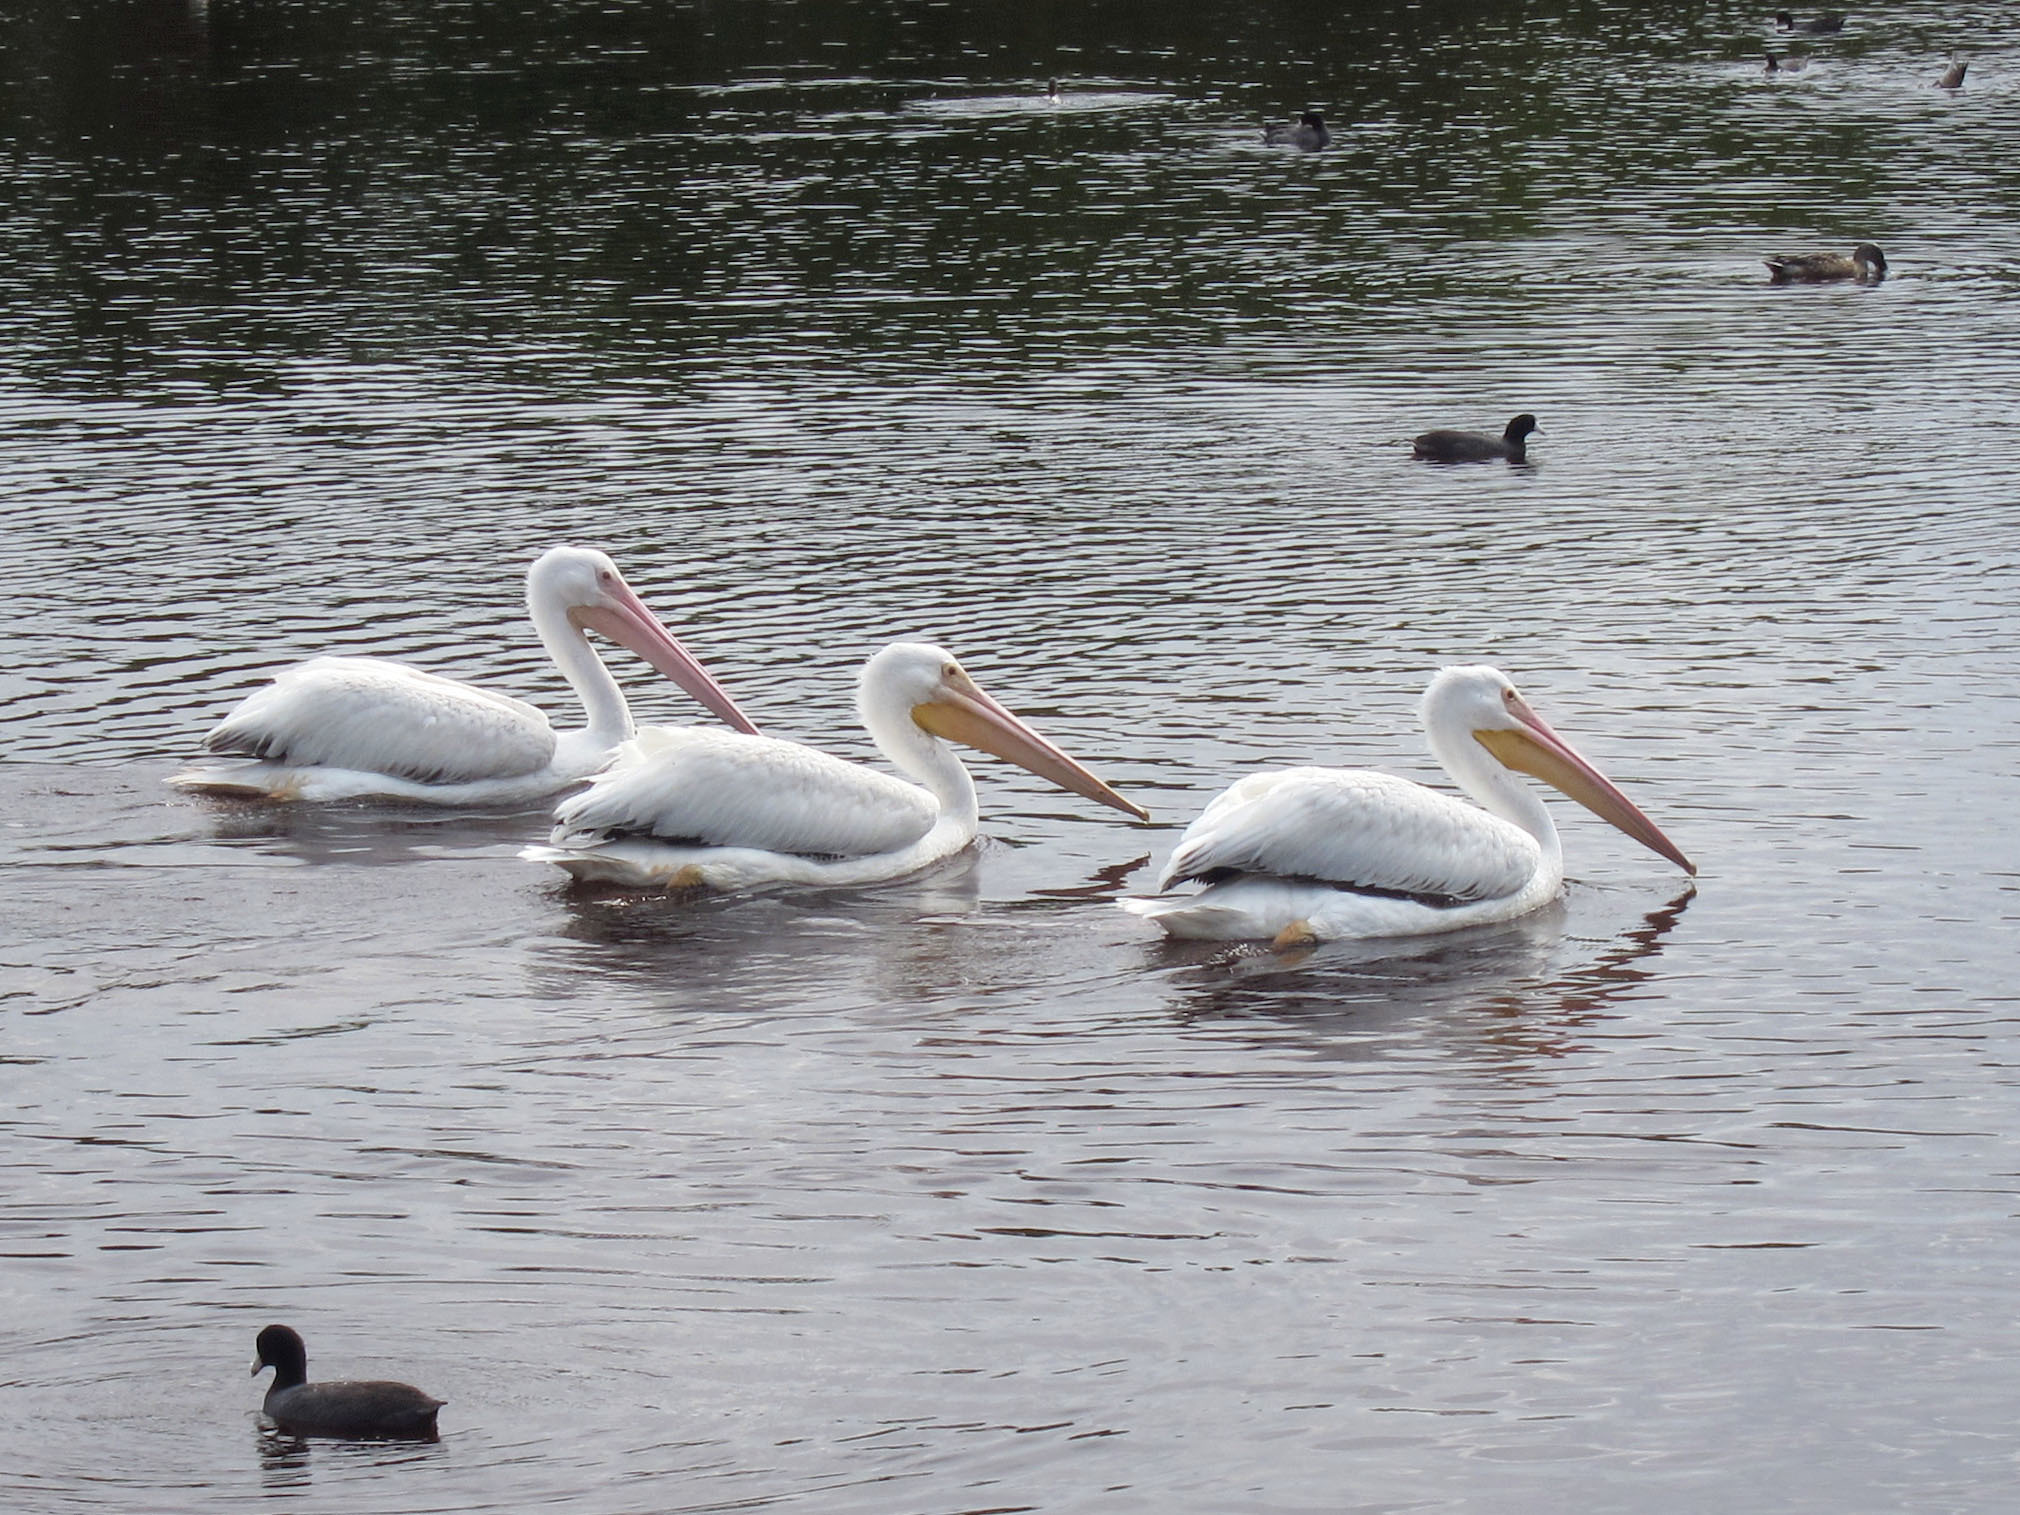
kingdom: Animalia
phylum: Chordata
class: Aves
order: Pelecaniformes
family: Pelecanidae
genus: Pelecanus
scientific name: Pelecanus erythrorhynchos
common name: American white pelican
